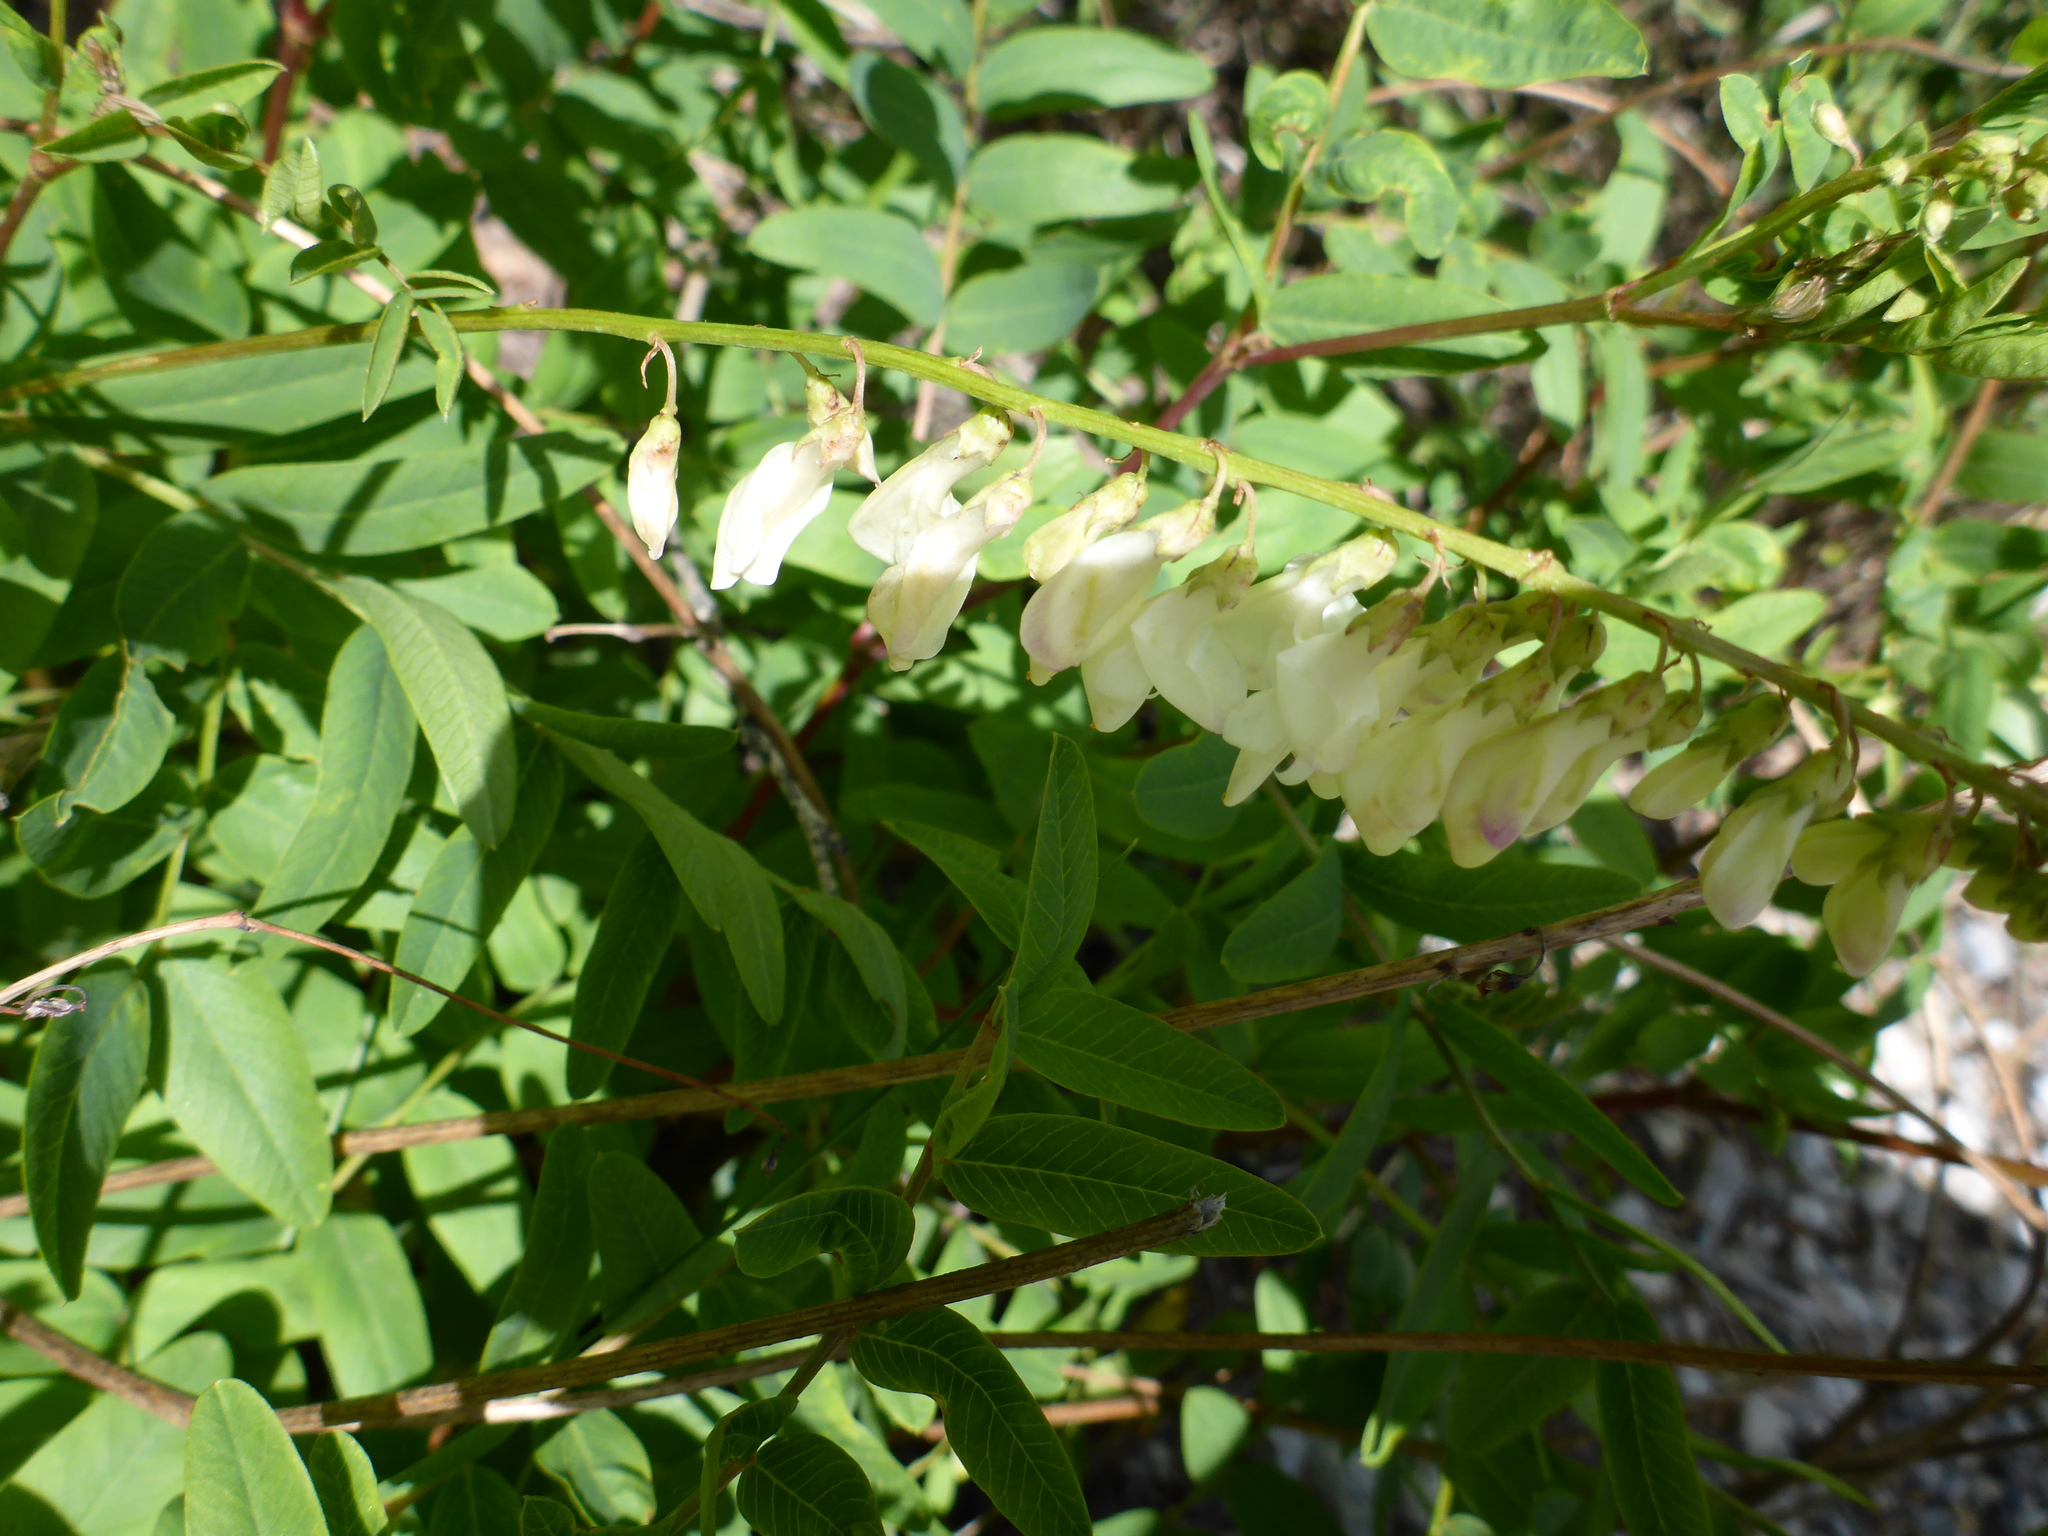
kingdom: Plantae
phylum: Tracheophyta
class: Magnoliopsida
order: Fabales
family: Fabaceae
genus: Hedysarum
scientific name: Hedysarum sulphurescens
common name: Sulphur hedysarum
